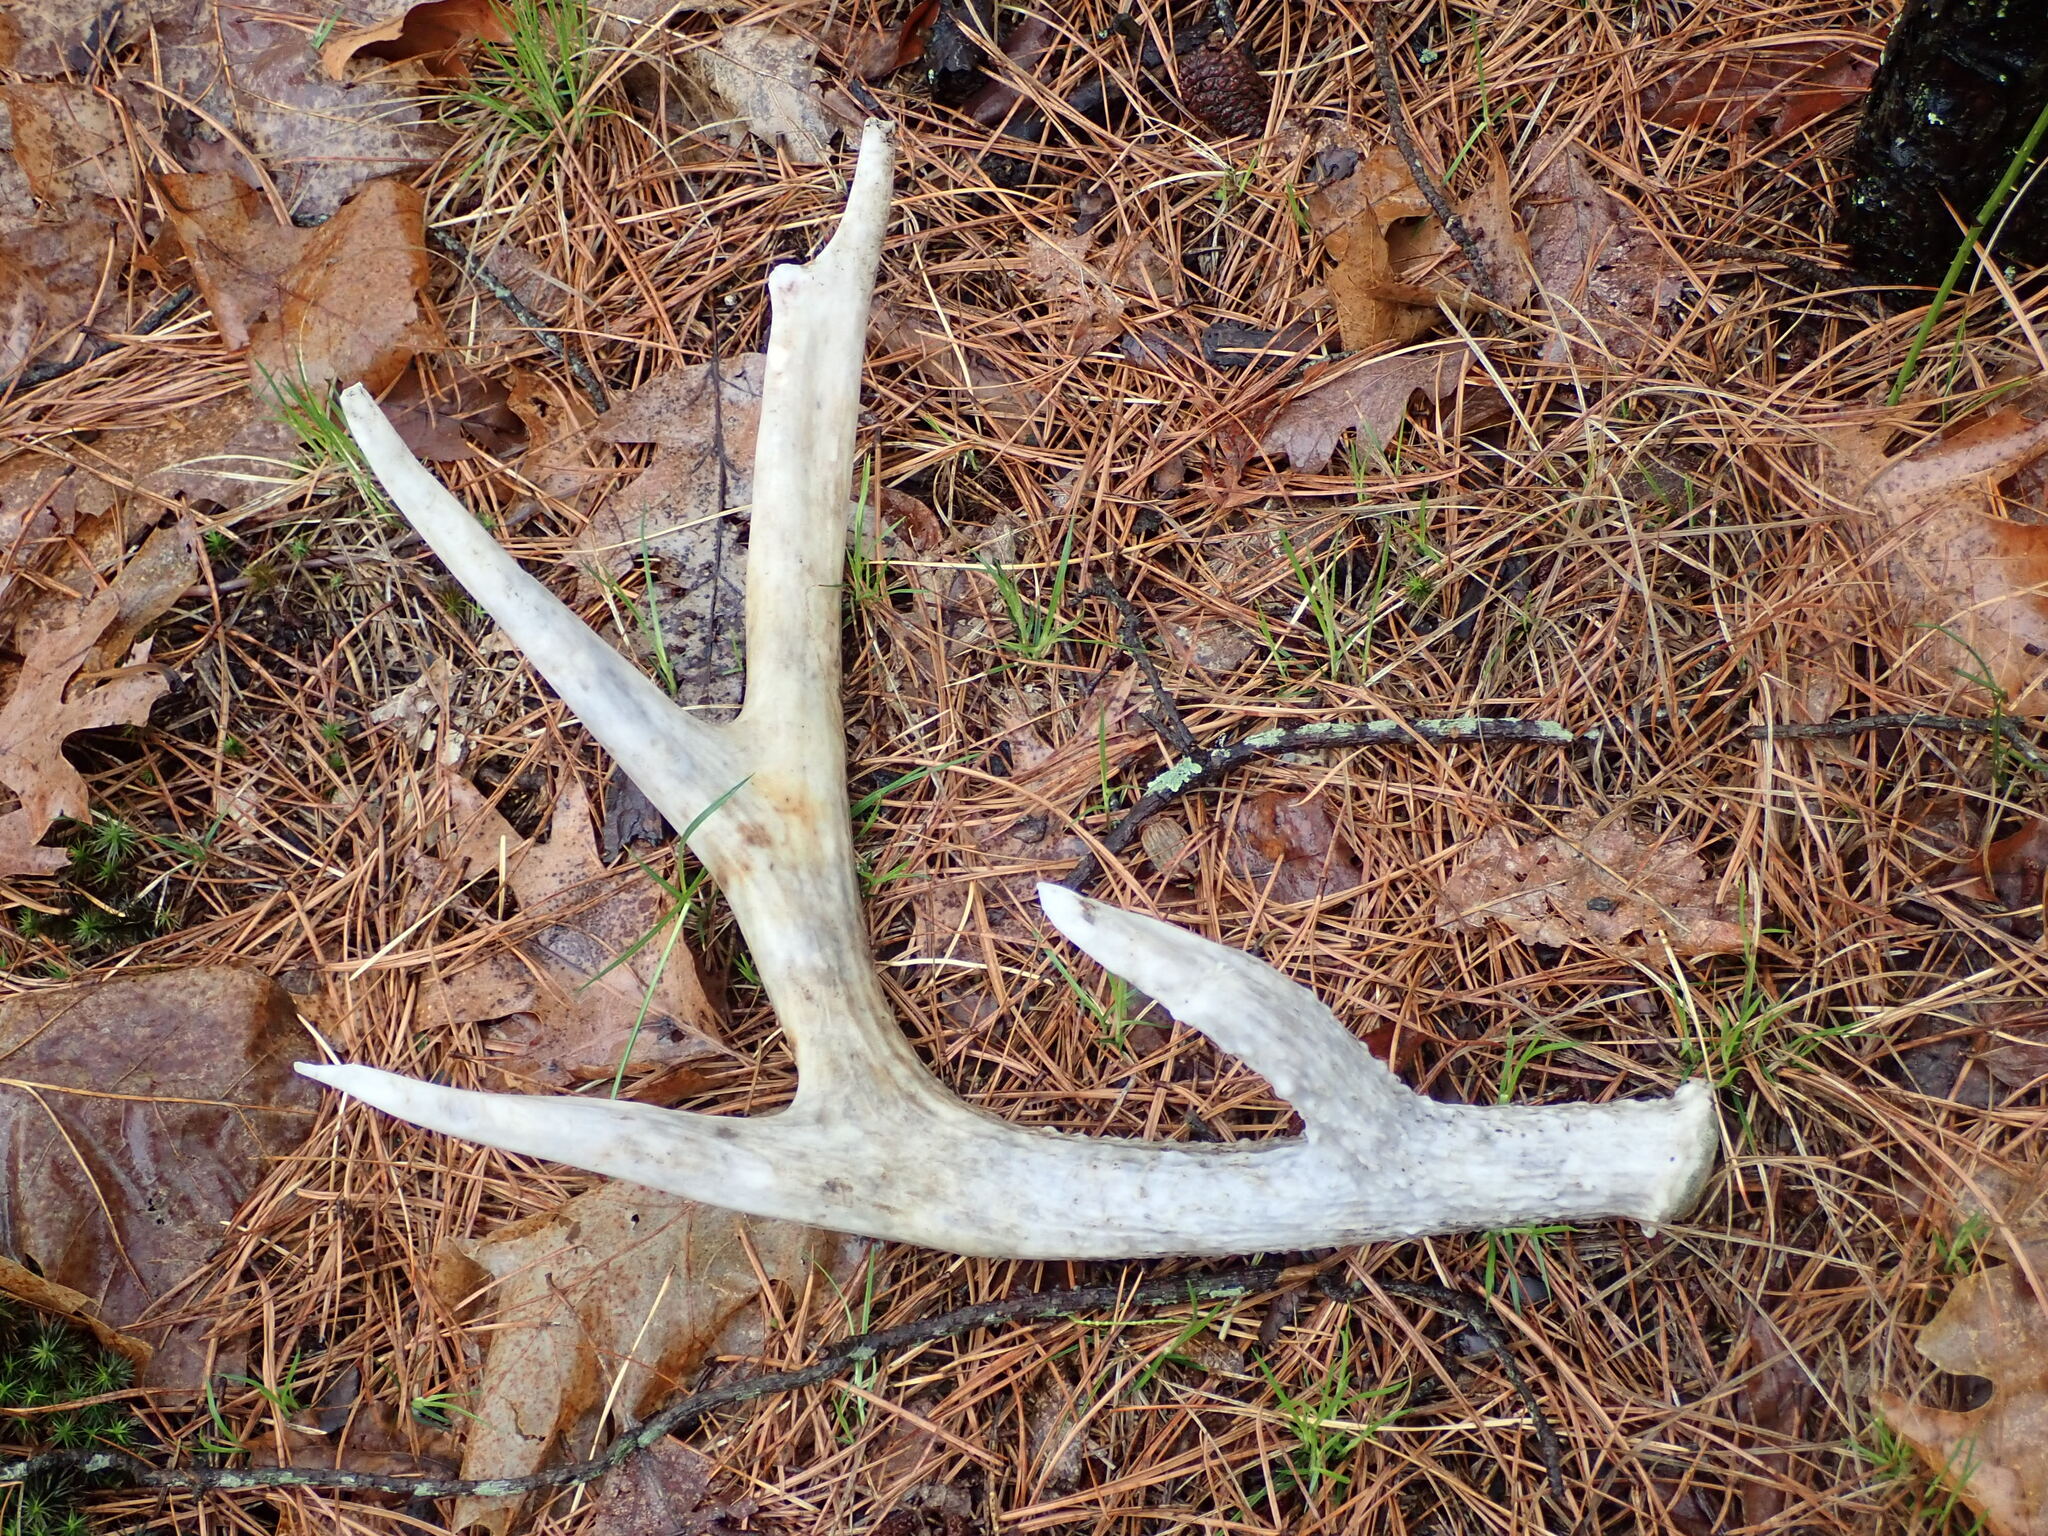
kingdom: Animalia
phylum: Chordata
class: Mammalia
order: Artiodactyla
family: Cervidae
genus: Odocoileus
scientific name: Odocoileus virginianus
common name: White-tailed deer
